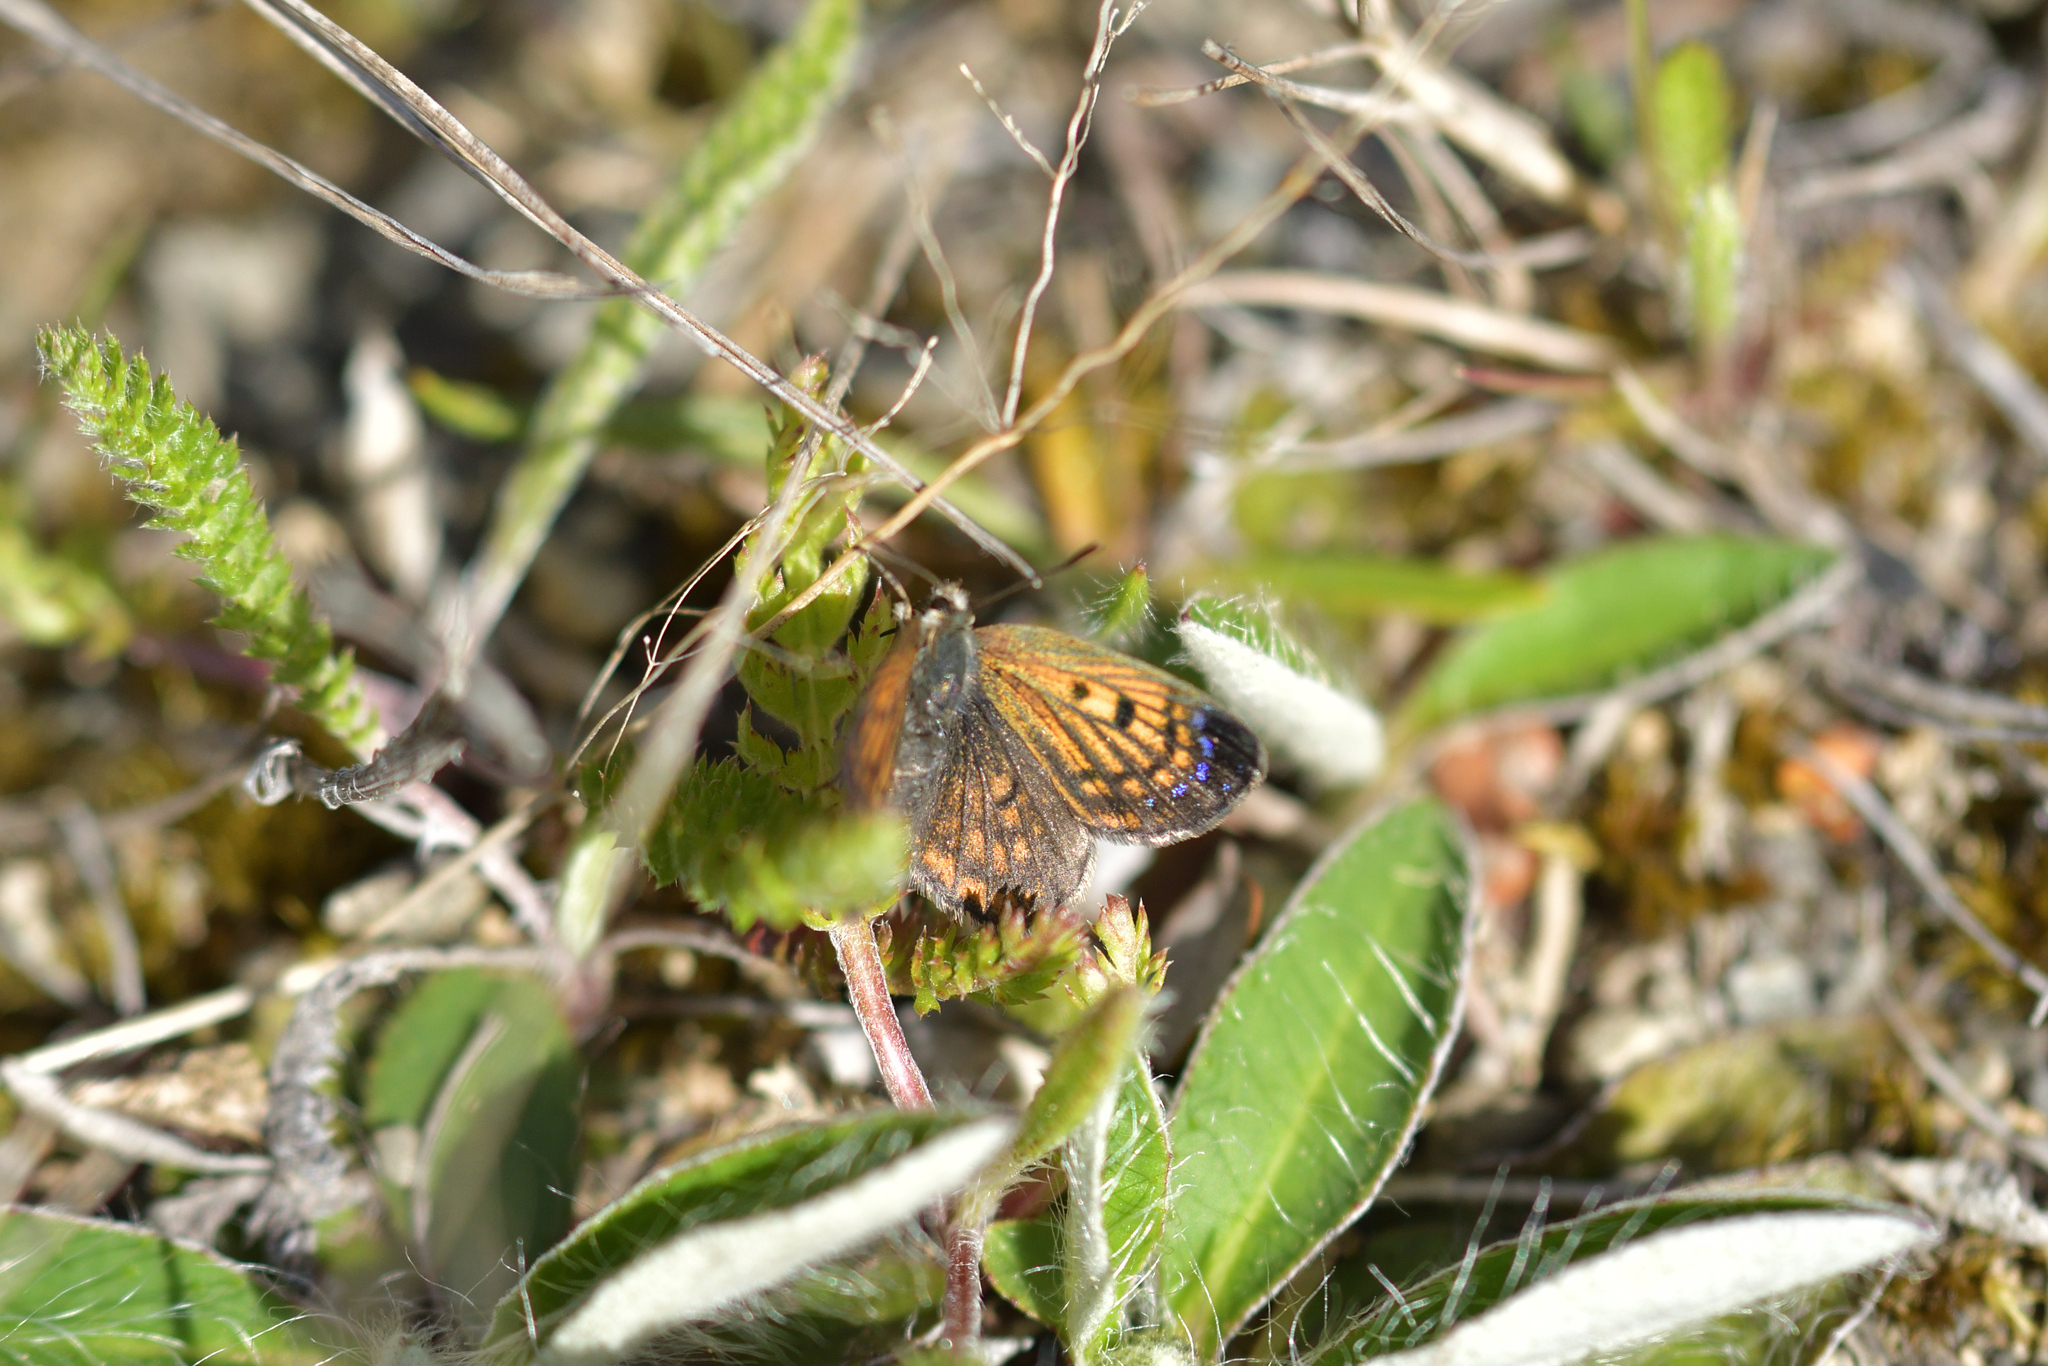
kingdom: Animalia
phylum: Arthropoda
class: Insecta
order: Lepidoptera
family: Lycaenidae
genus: Lycaena
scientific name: Lycaena tama
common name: Canterbury alpine boulder copper
